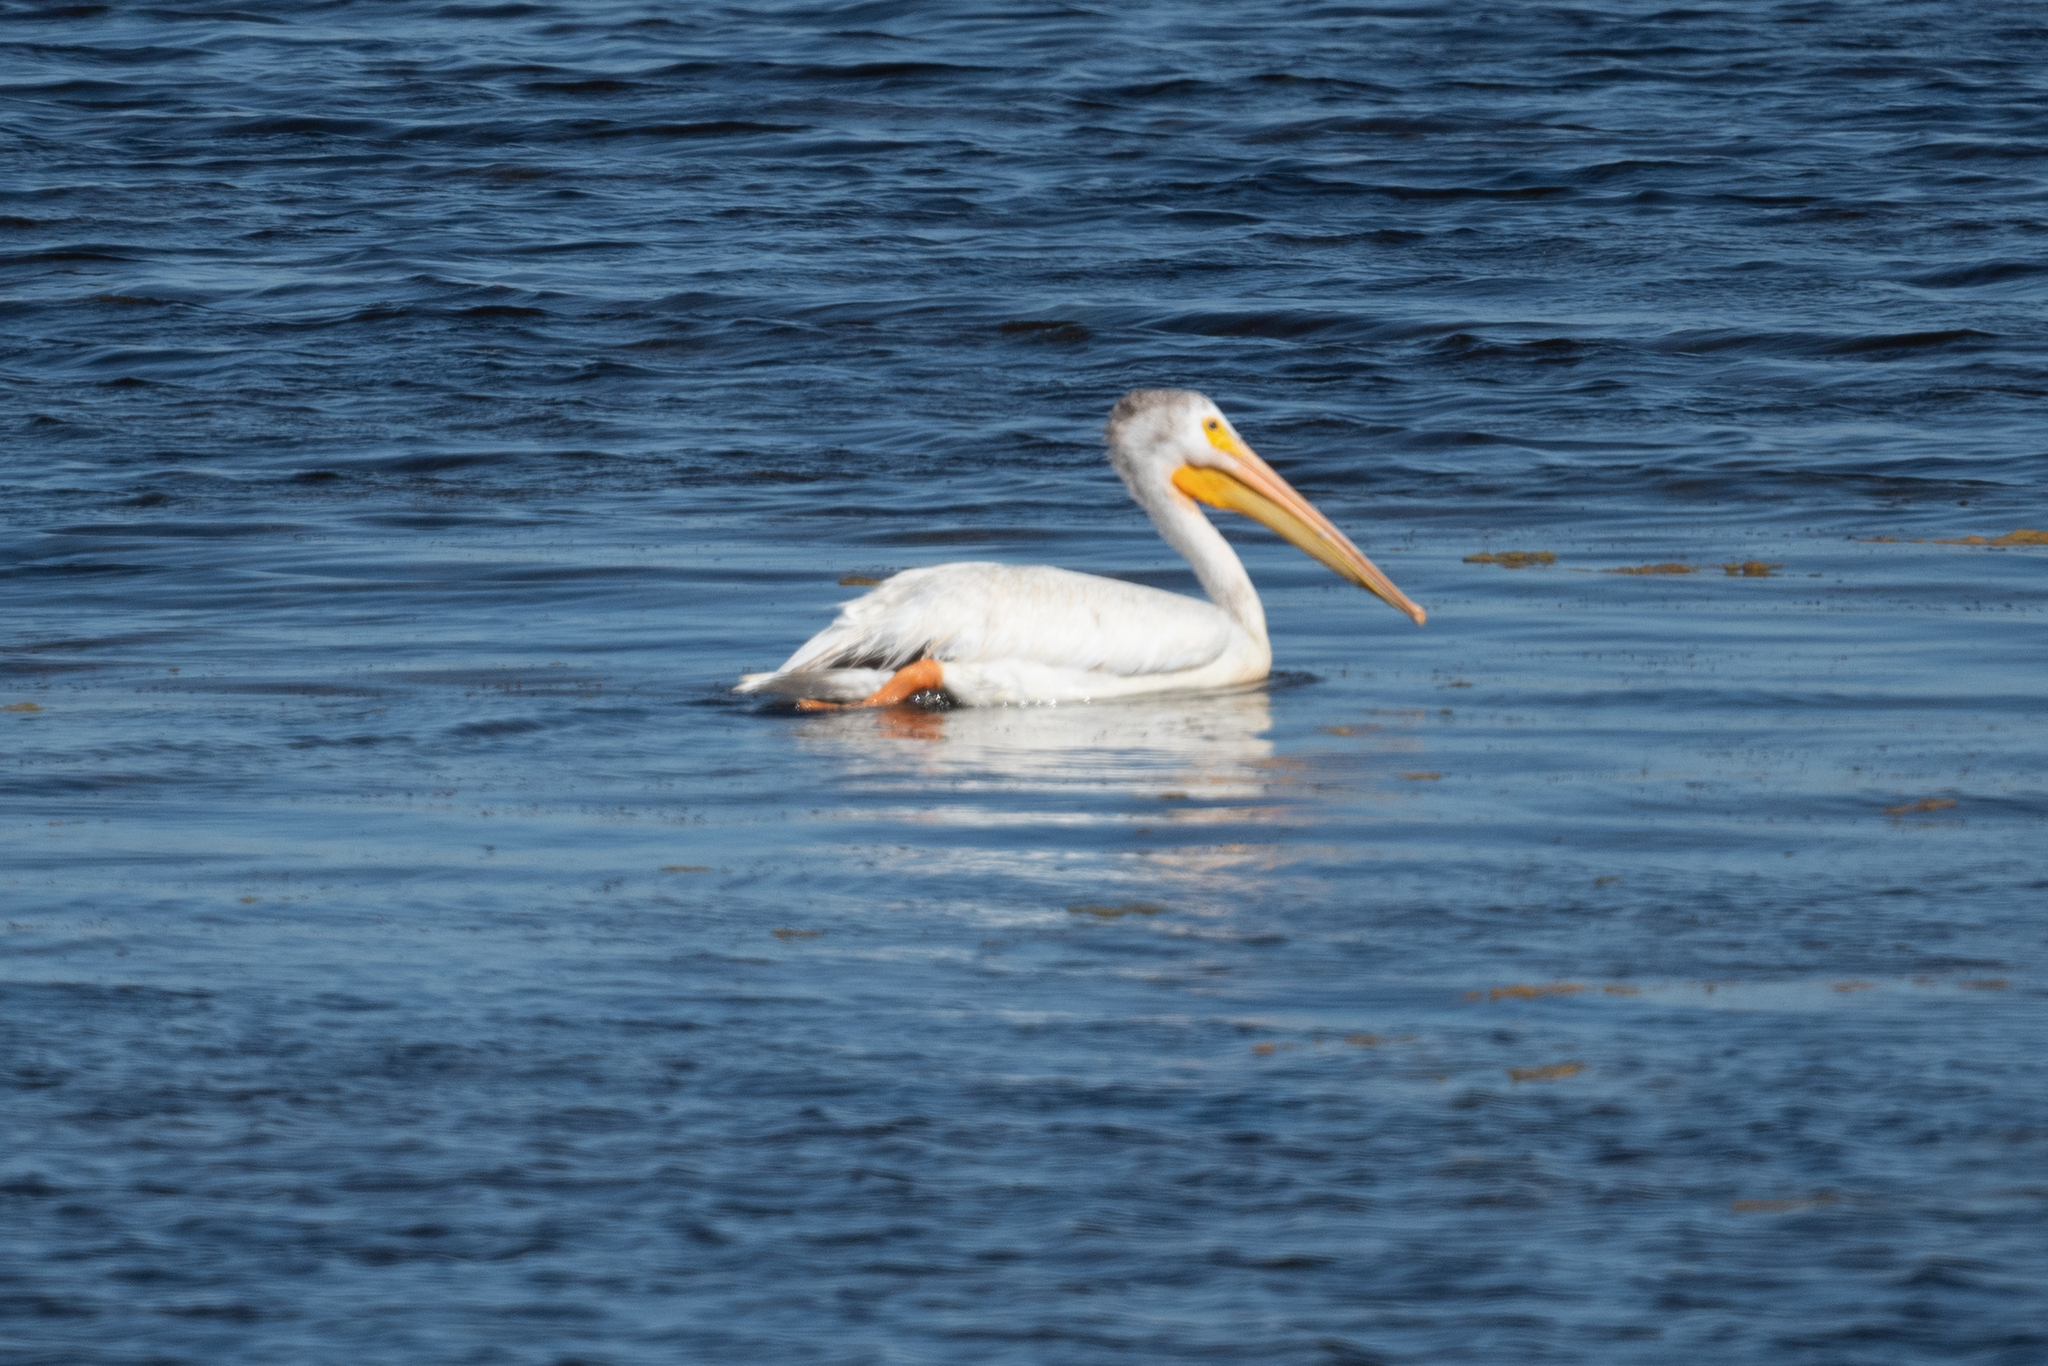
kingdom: Animalia
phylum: Chordata
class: Aves
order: Pelecaniformes
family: Pelecanidae
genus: Pelecanus
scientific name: Pelecanus erythrorhynchos
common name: American white pelican
